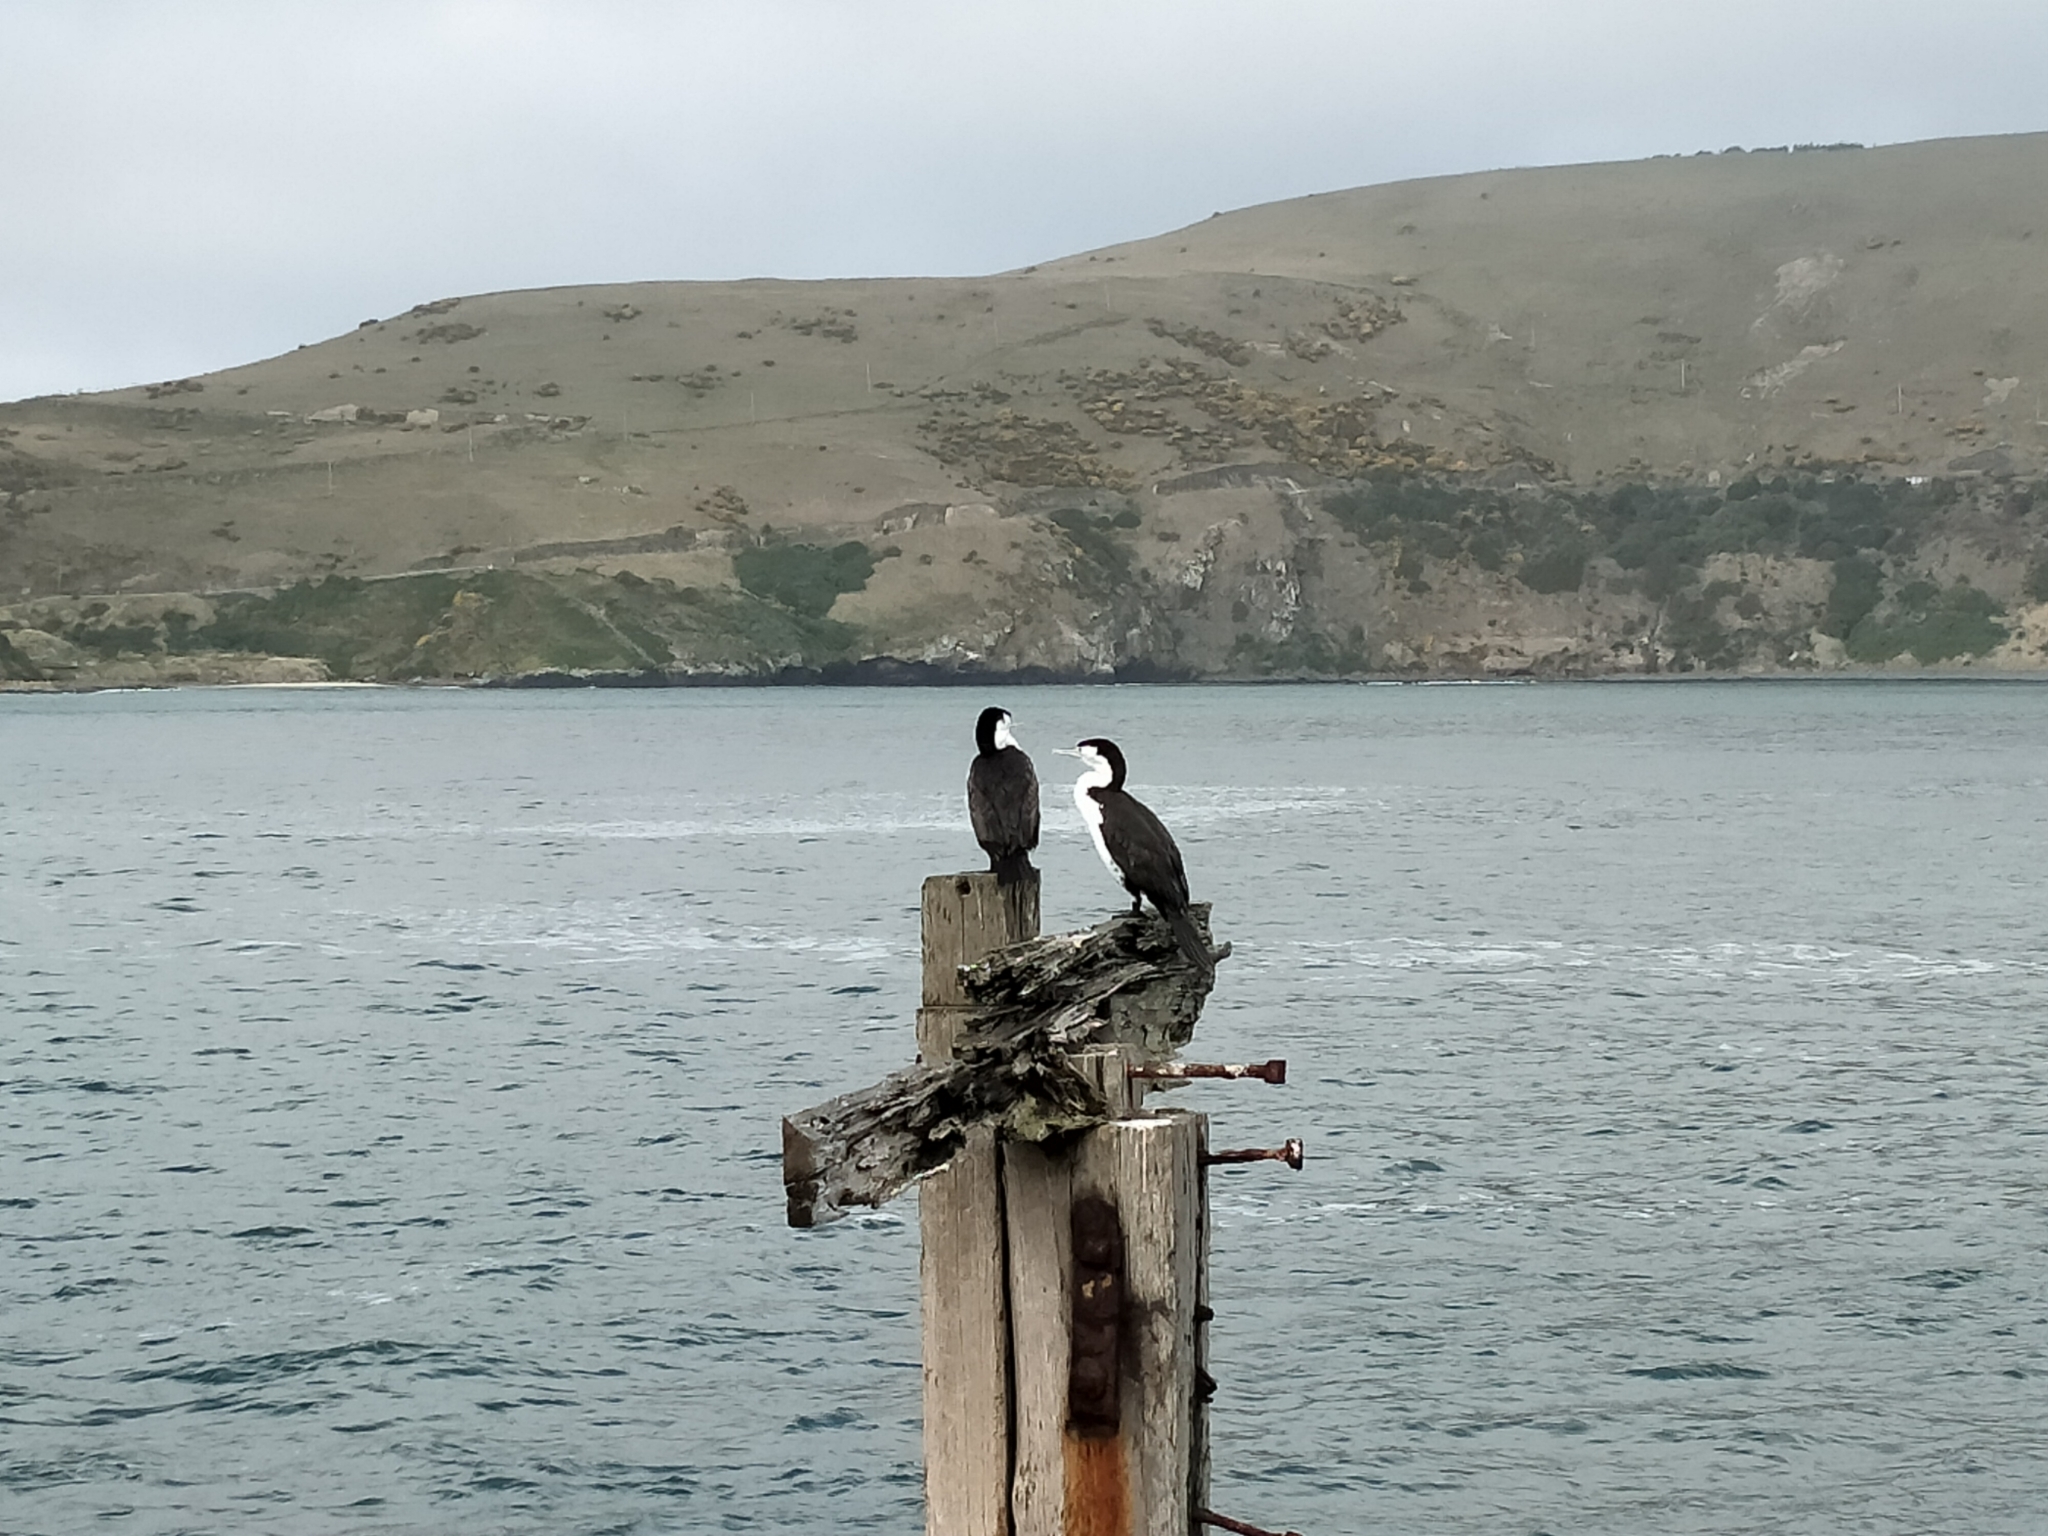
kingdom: Animalia
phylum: Chordata
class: Aves
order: Suliformes
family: Phalacrocoracidae
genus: Phalacrocorax
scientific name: Phalacrocorax varius
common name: Pied cormorant
